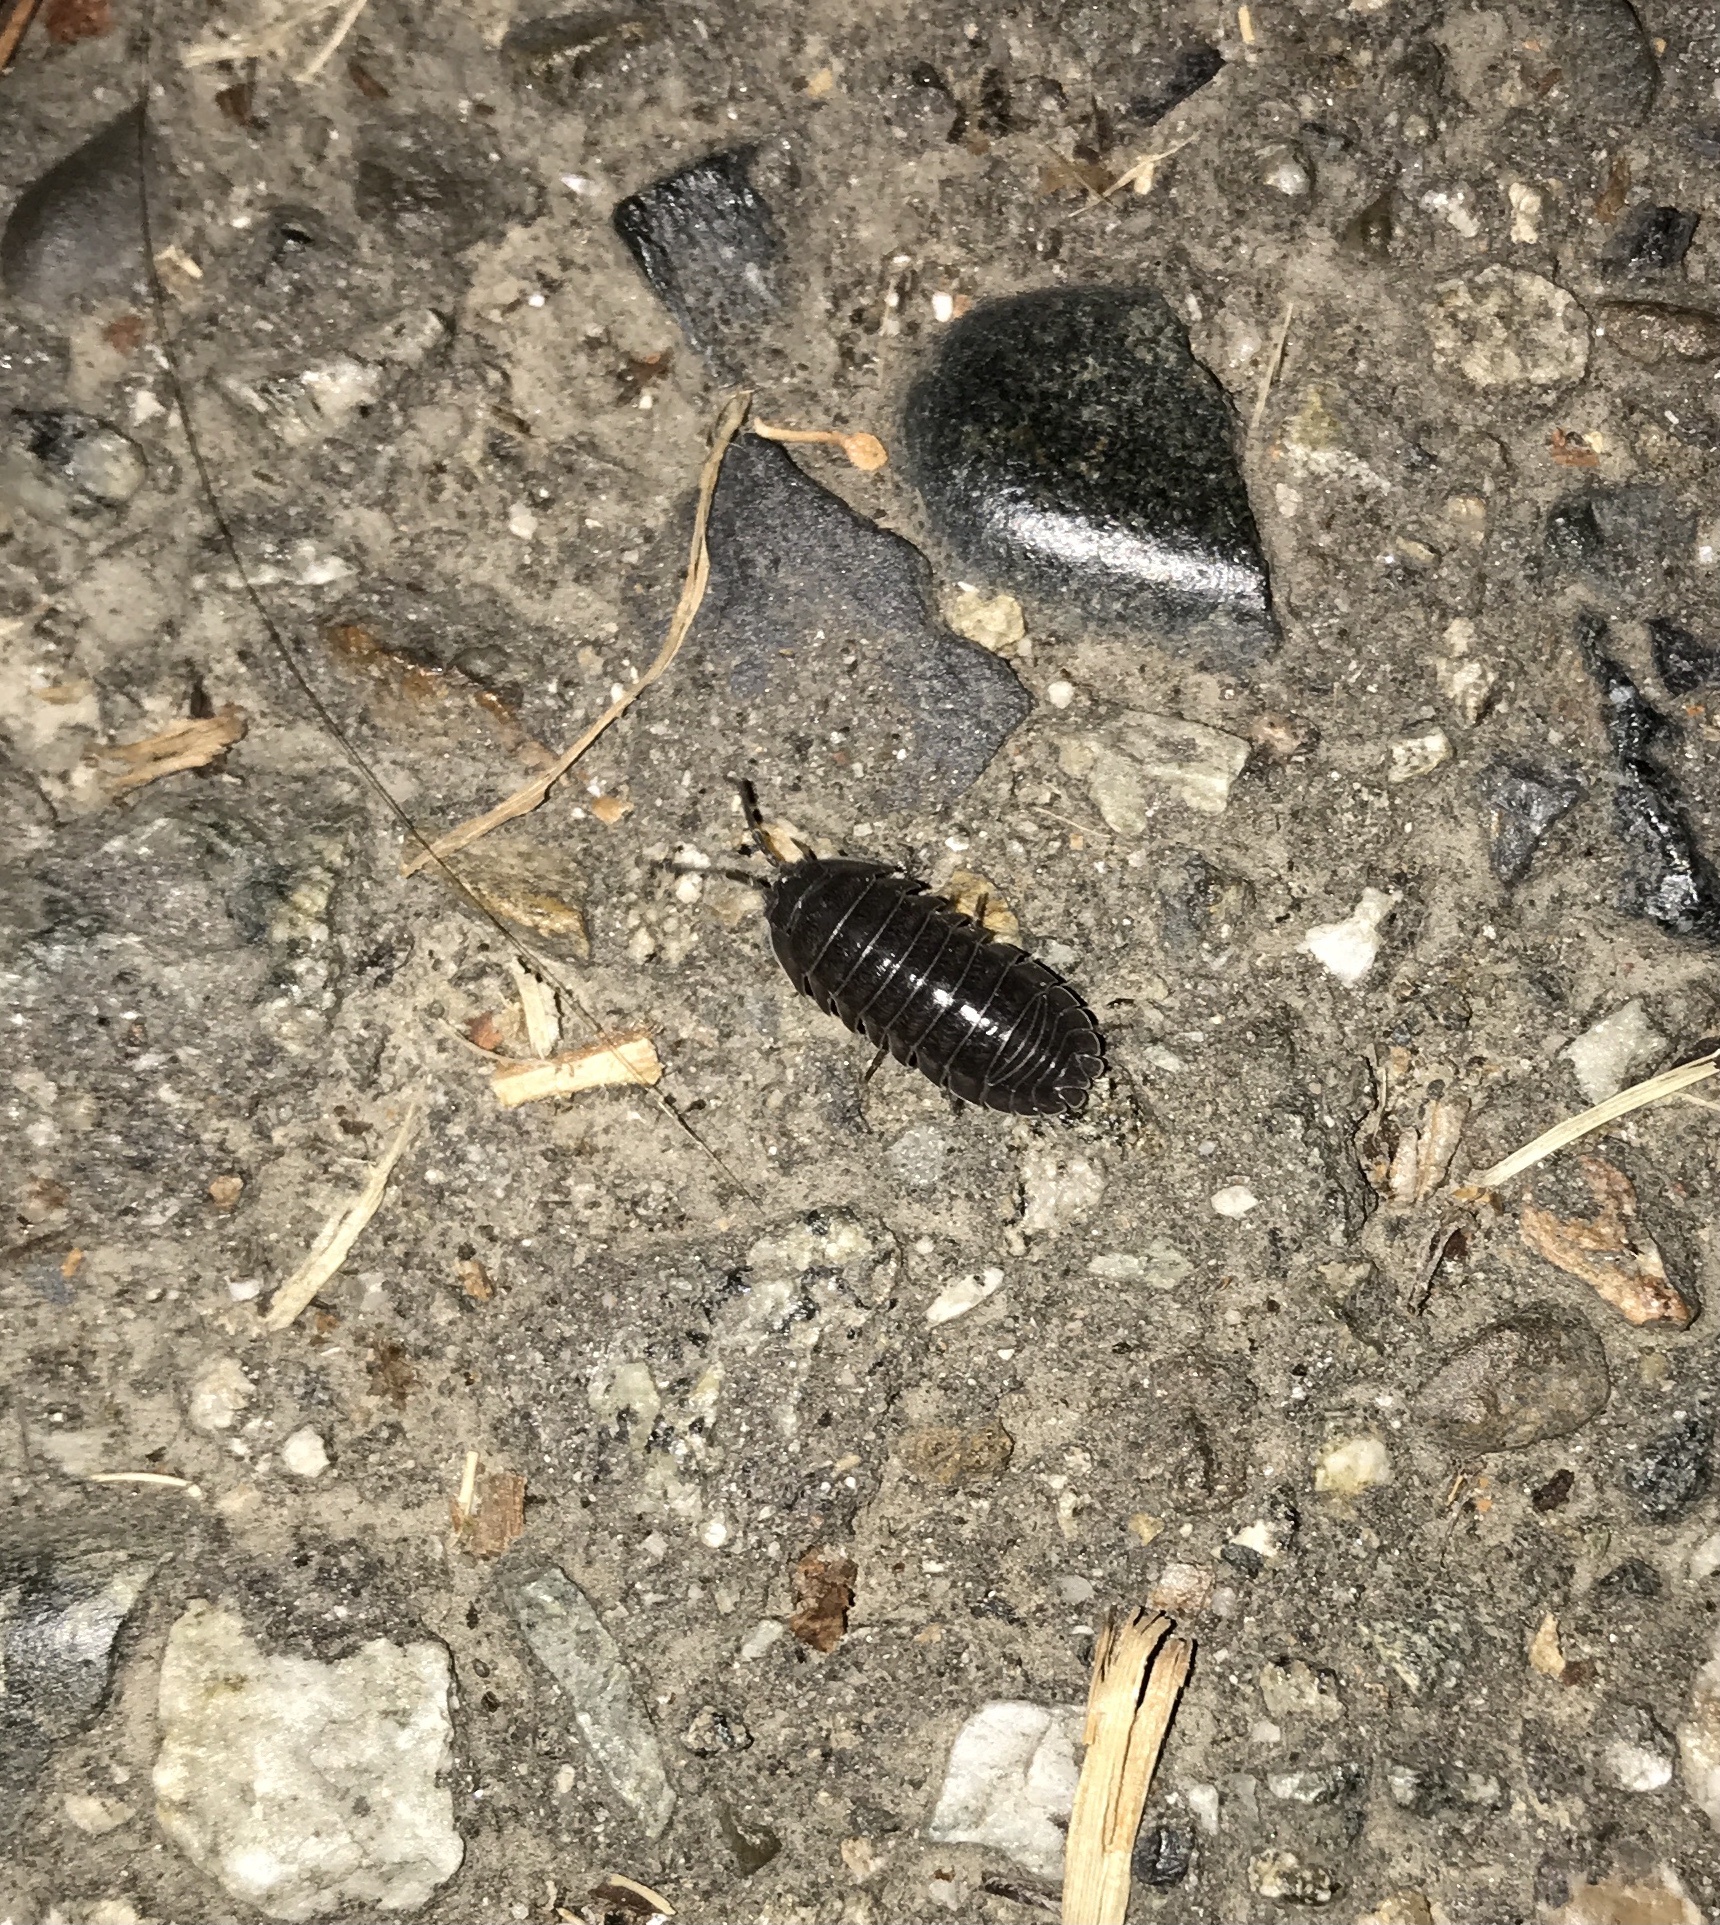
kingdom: Animalia
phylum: Arthropoda
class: Malacostraca
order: Isopoda
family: Armadillidiidae
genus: Armadillidium
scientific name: Armadillidium nasatum
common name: Isopod
